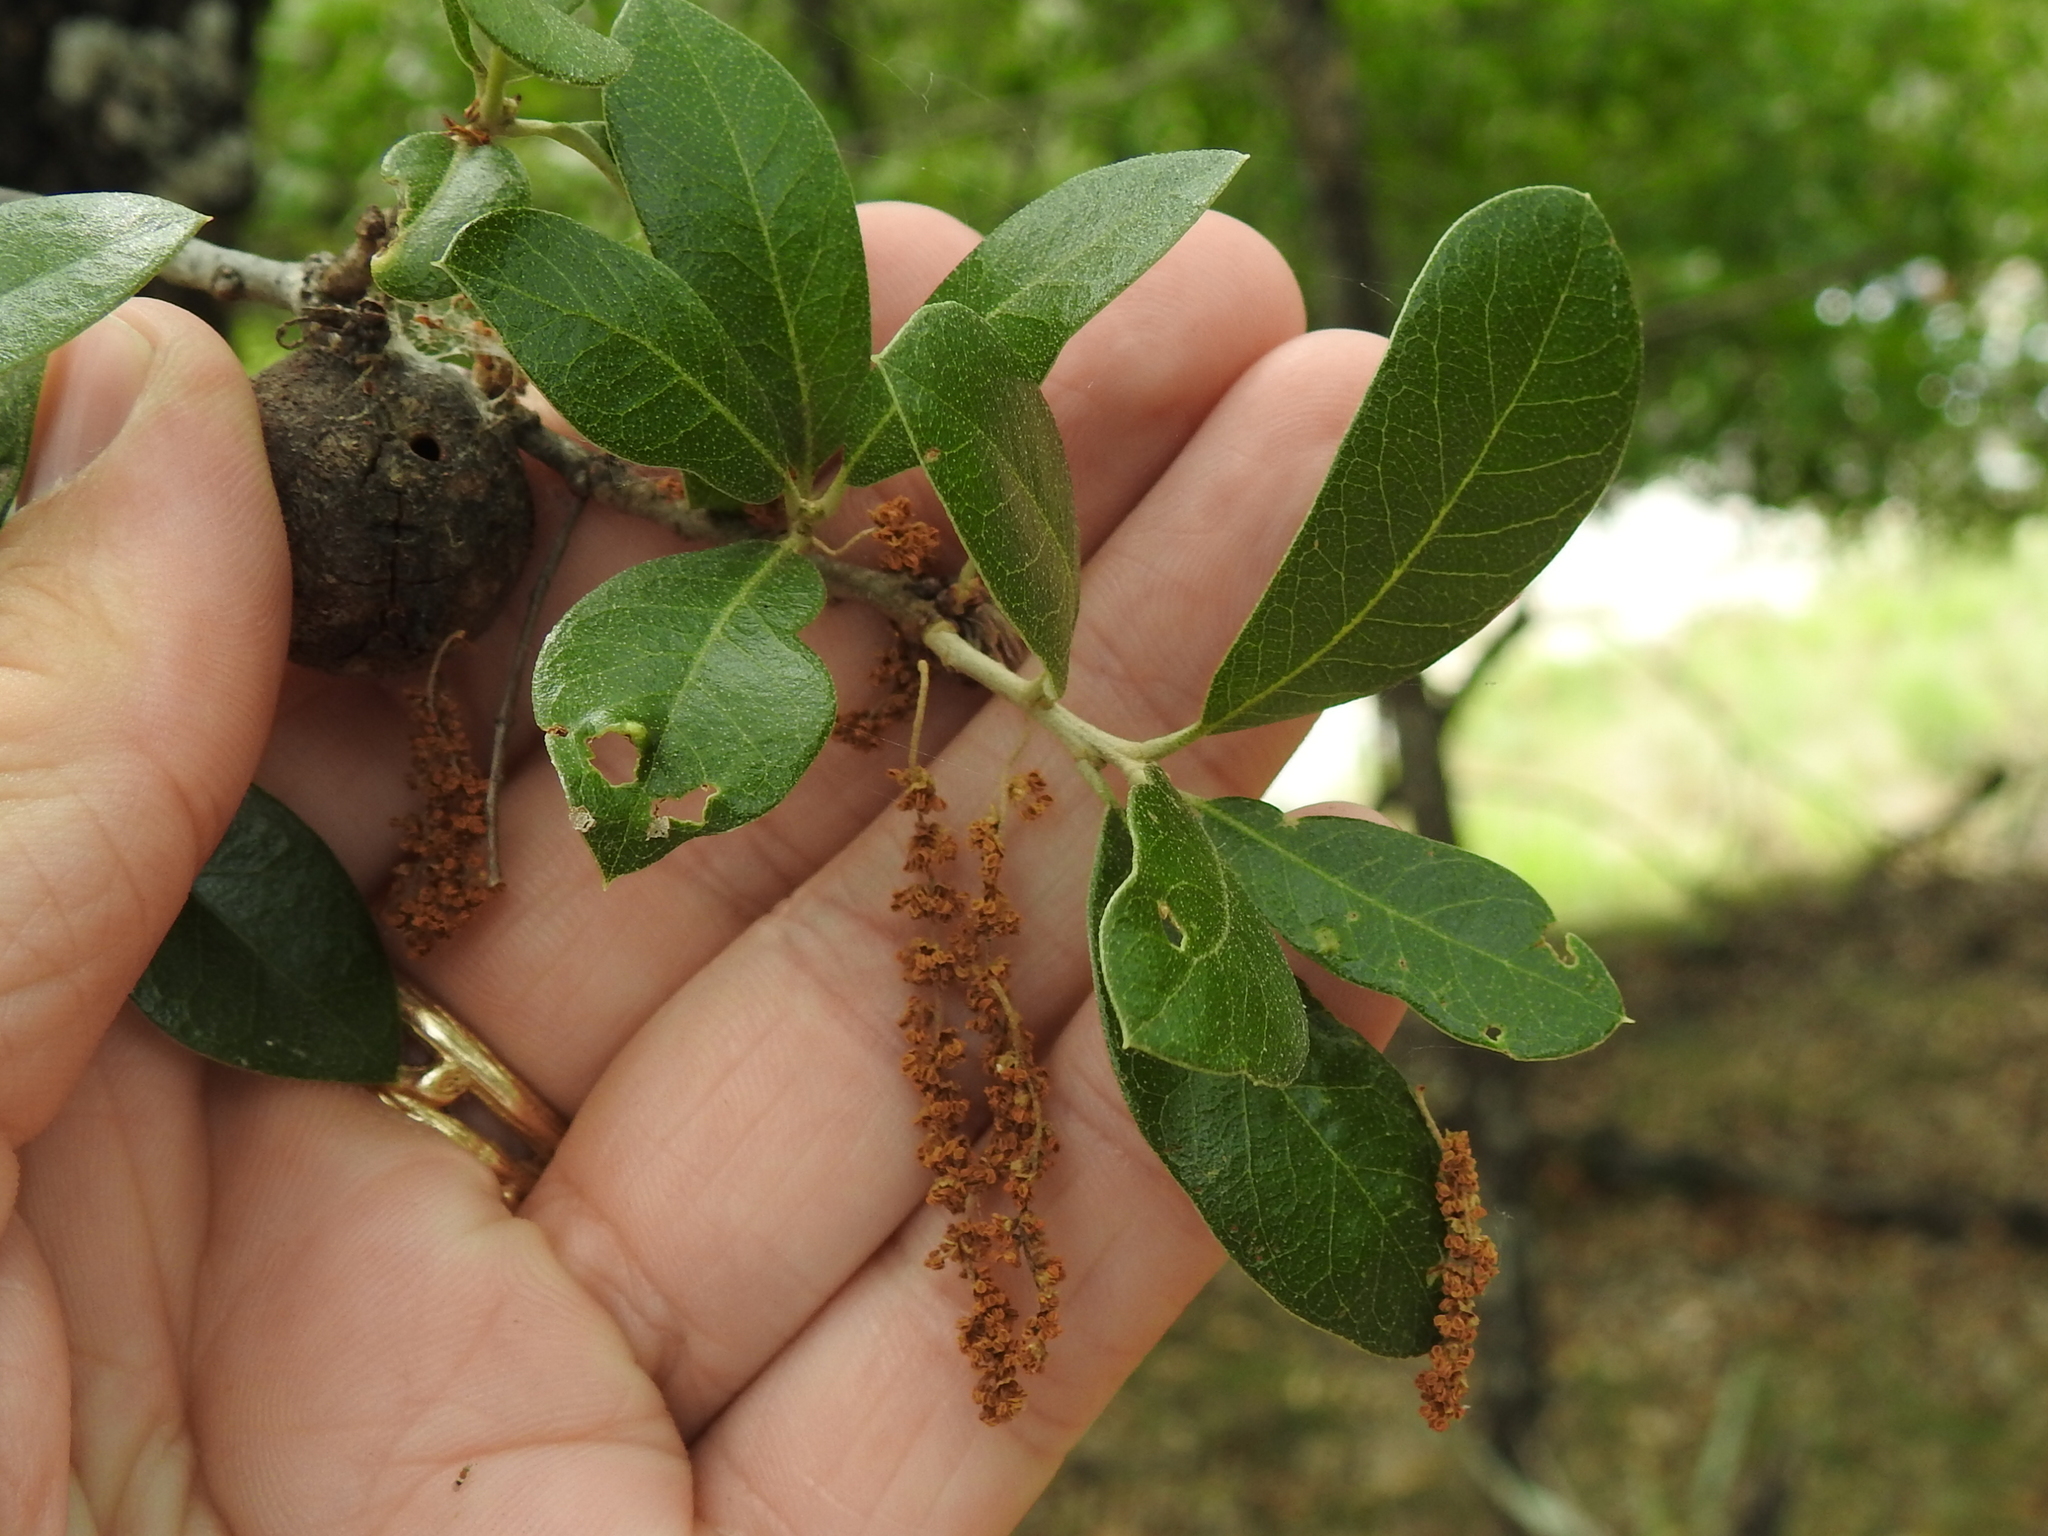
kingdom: Plantae
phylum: Tracheophyta
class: Magnoliopsida
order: Fagales
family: Fagaceae
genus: Quercus
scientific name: Quercus fusiformis
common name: Texas live oak
